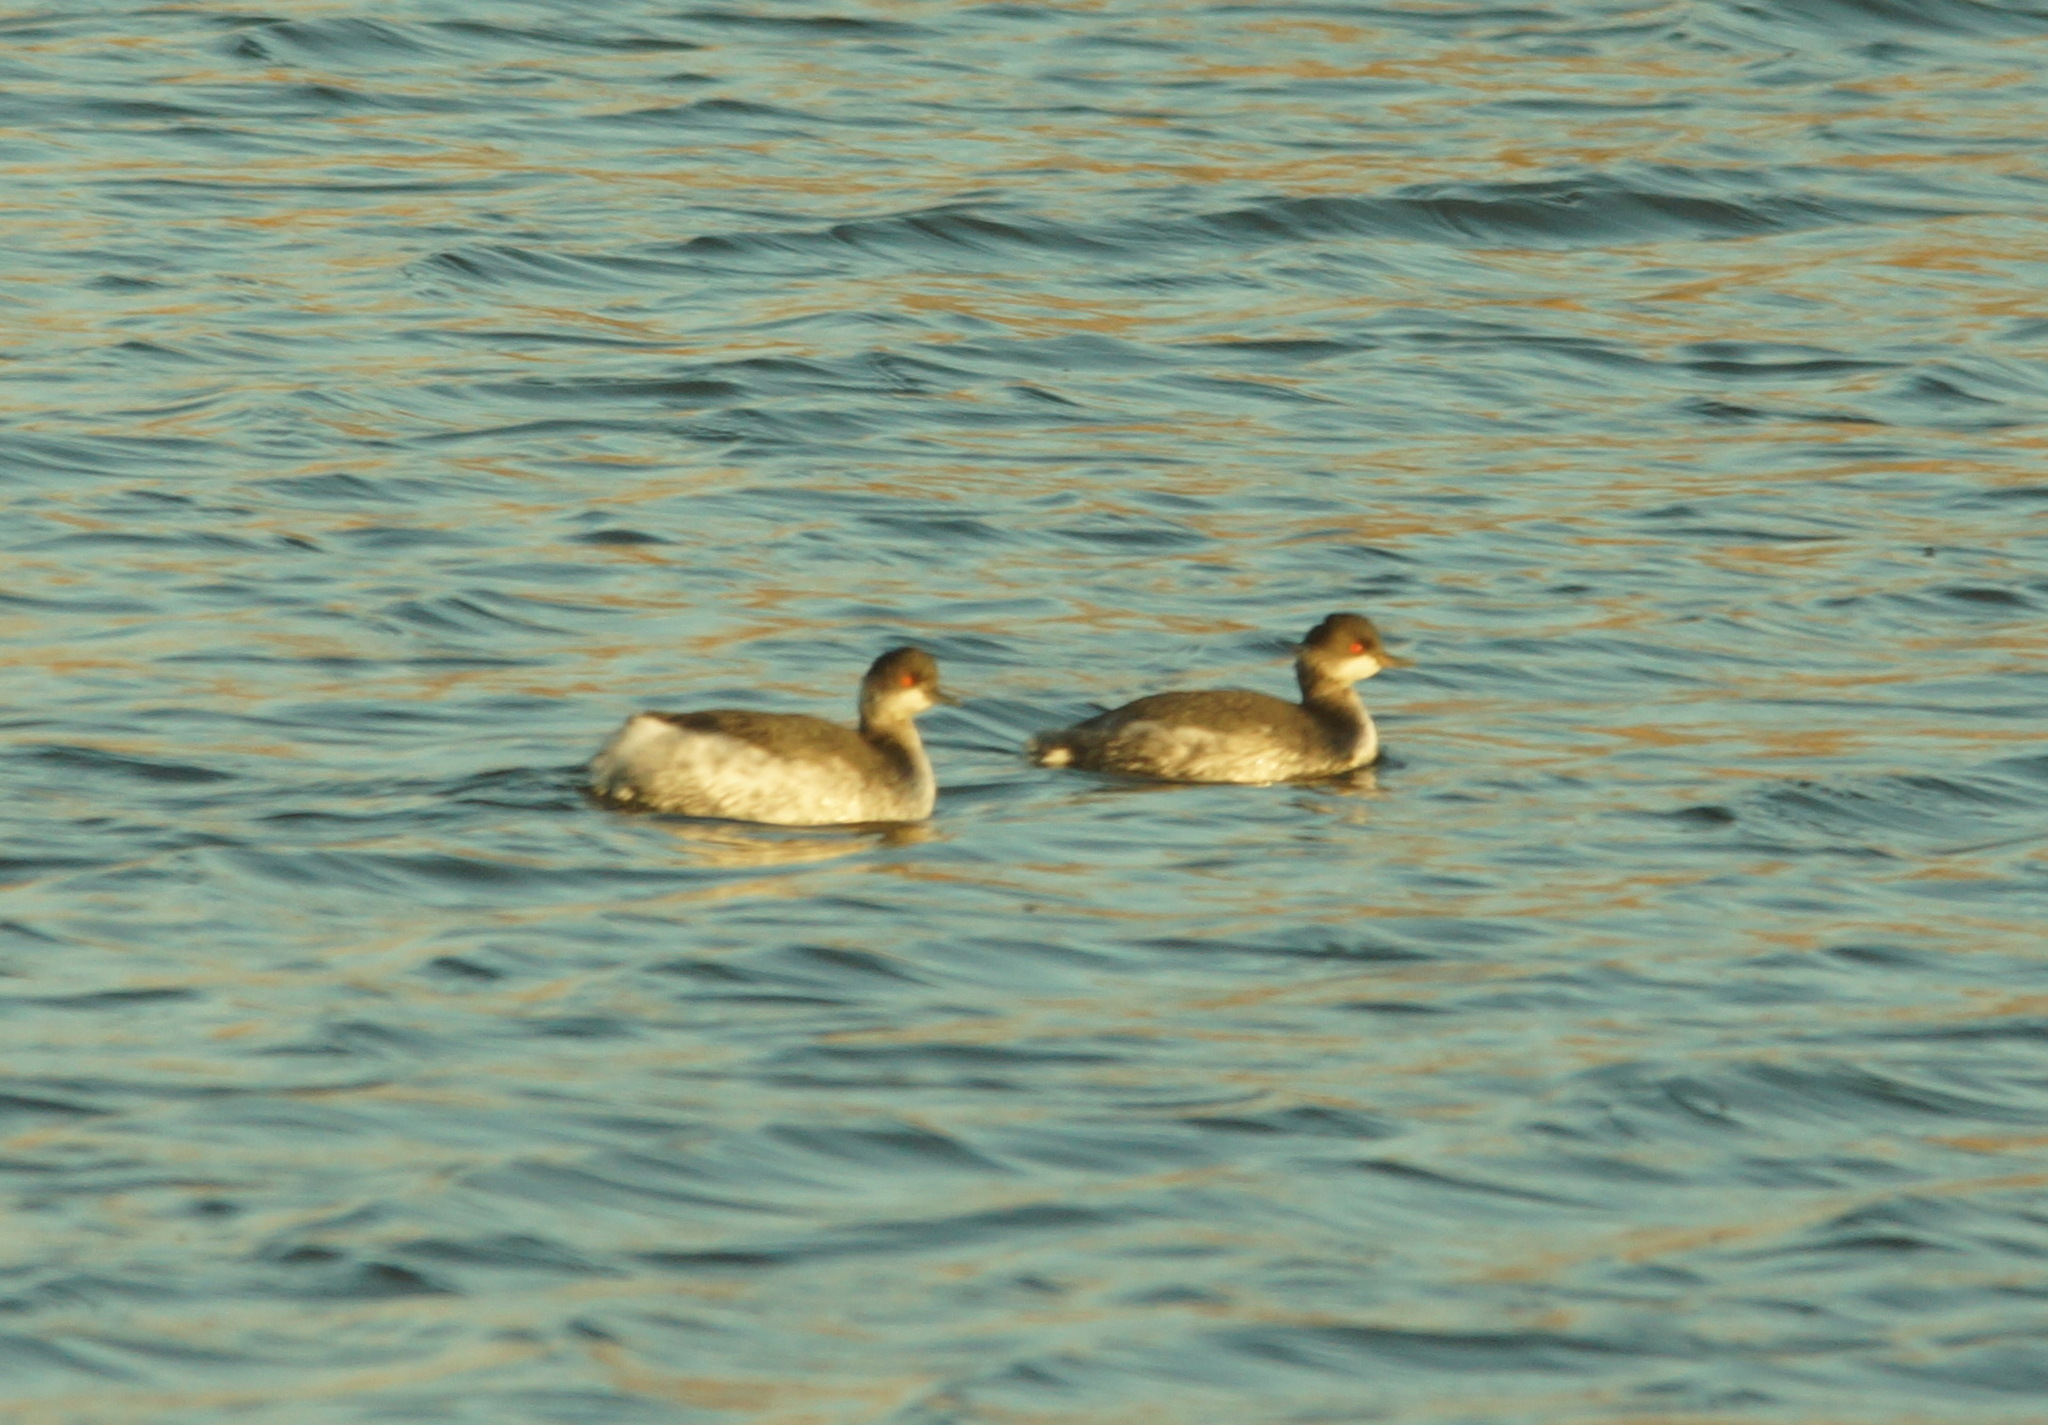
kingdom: Animalia
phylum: Chordata
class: Aves
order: Podicipediformes
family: Podicipedidae
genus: Podiceps
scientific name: Podiceps nigricollis
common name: Black-necked grebe
